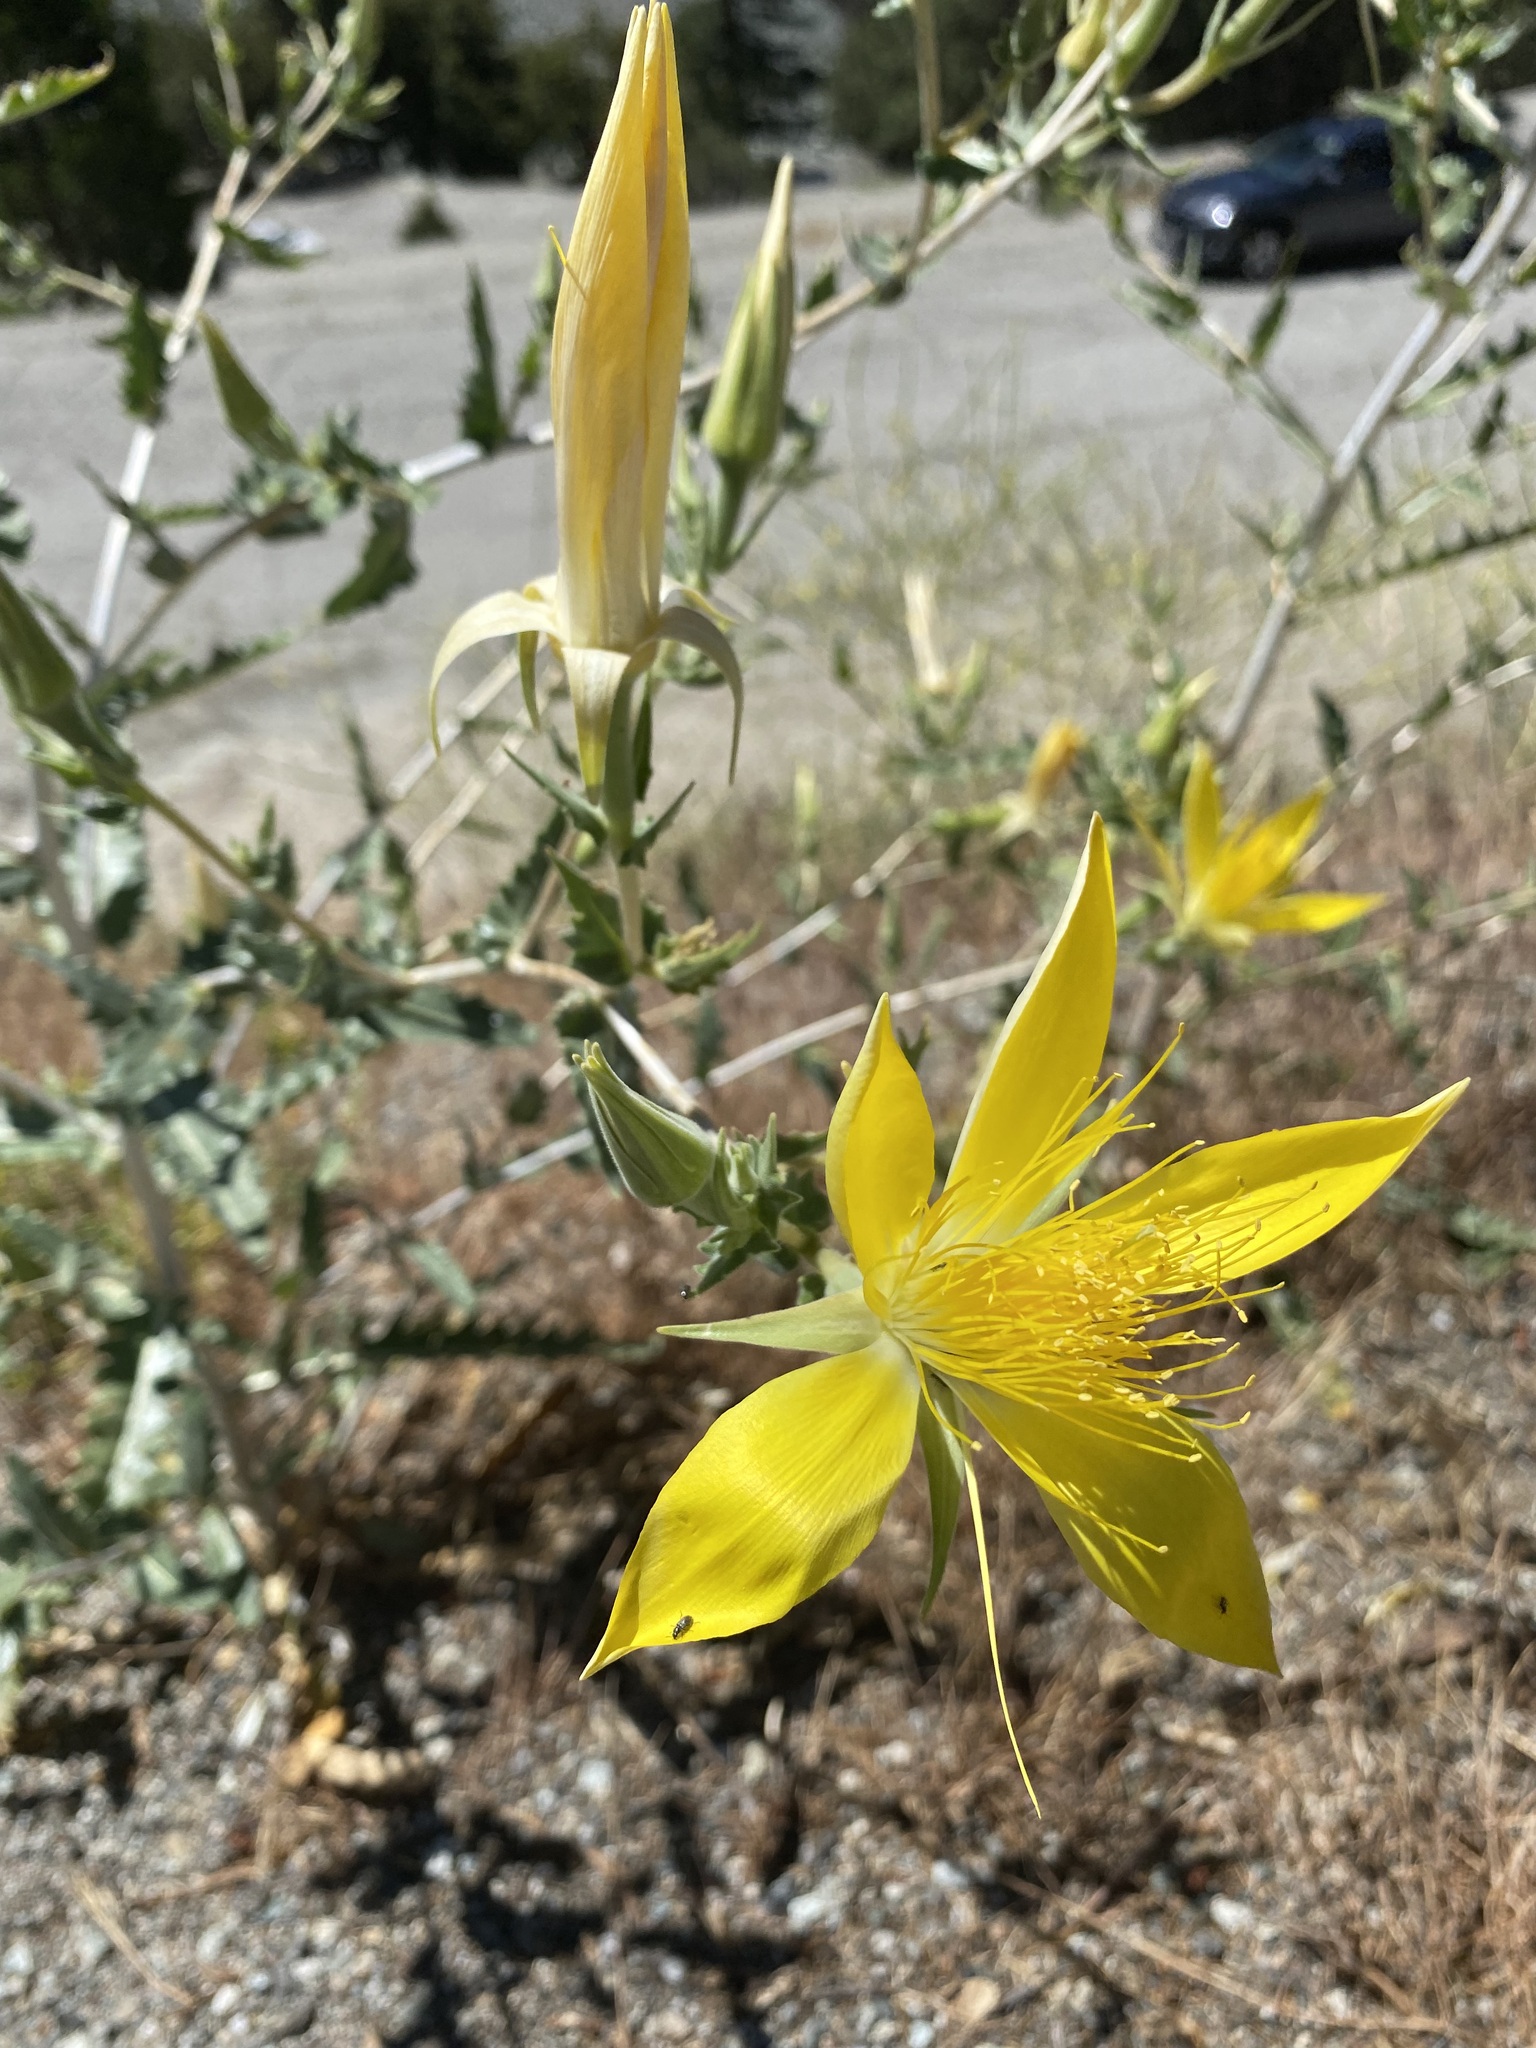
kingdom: Plantae
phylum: Tracheophyta
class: Magnoliopsida
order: Cornales
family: Loasaceae
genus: Mentzelia
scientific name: Mentzelia laevicaulis
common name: Smooth-stem blazingstar
